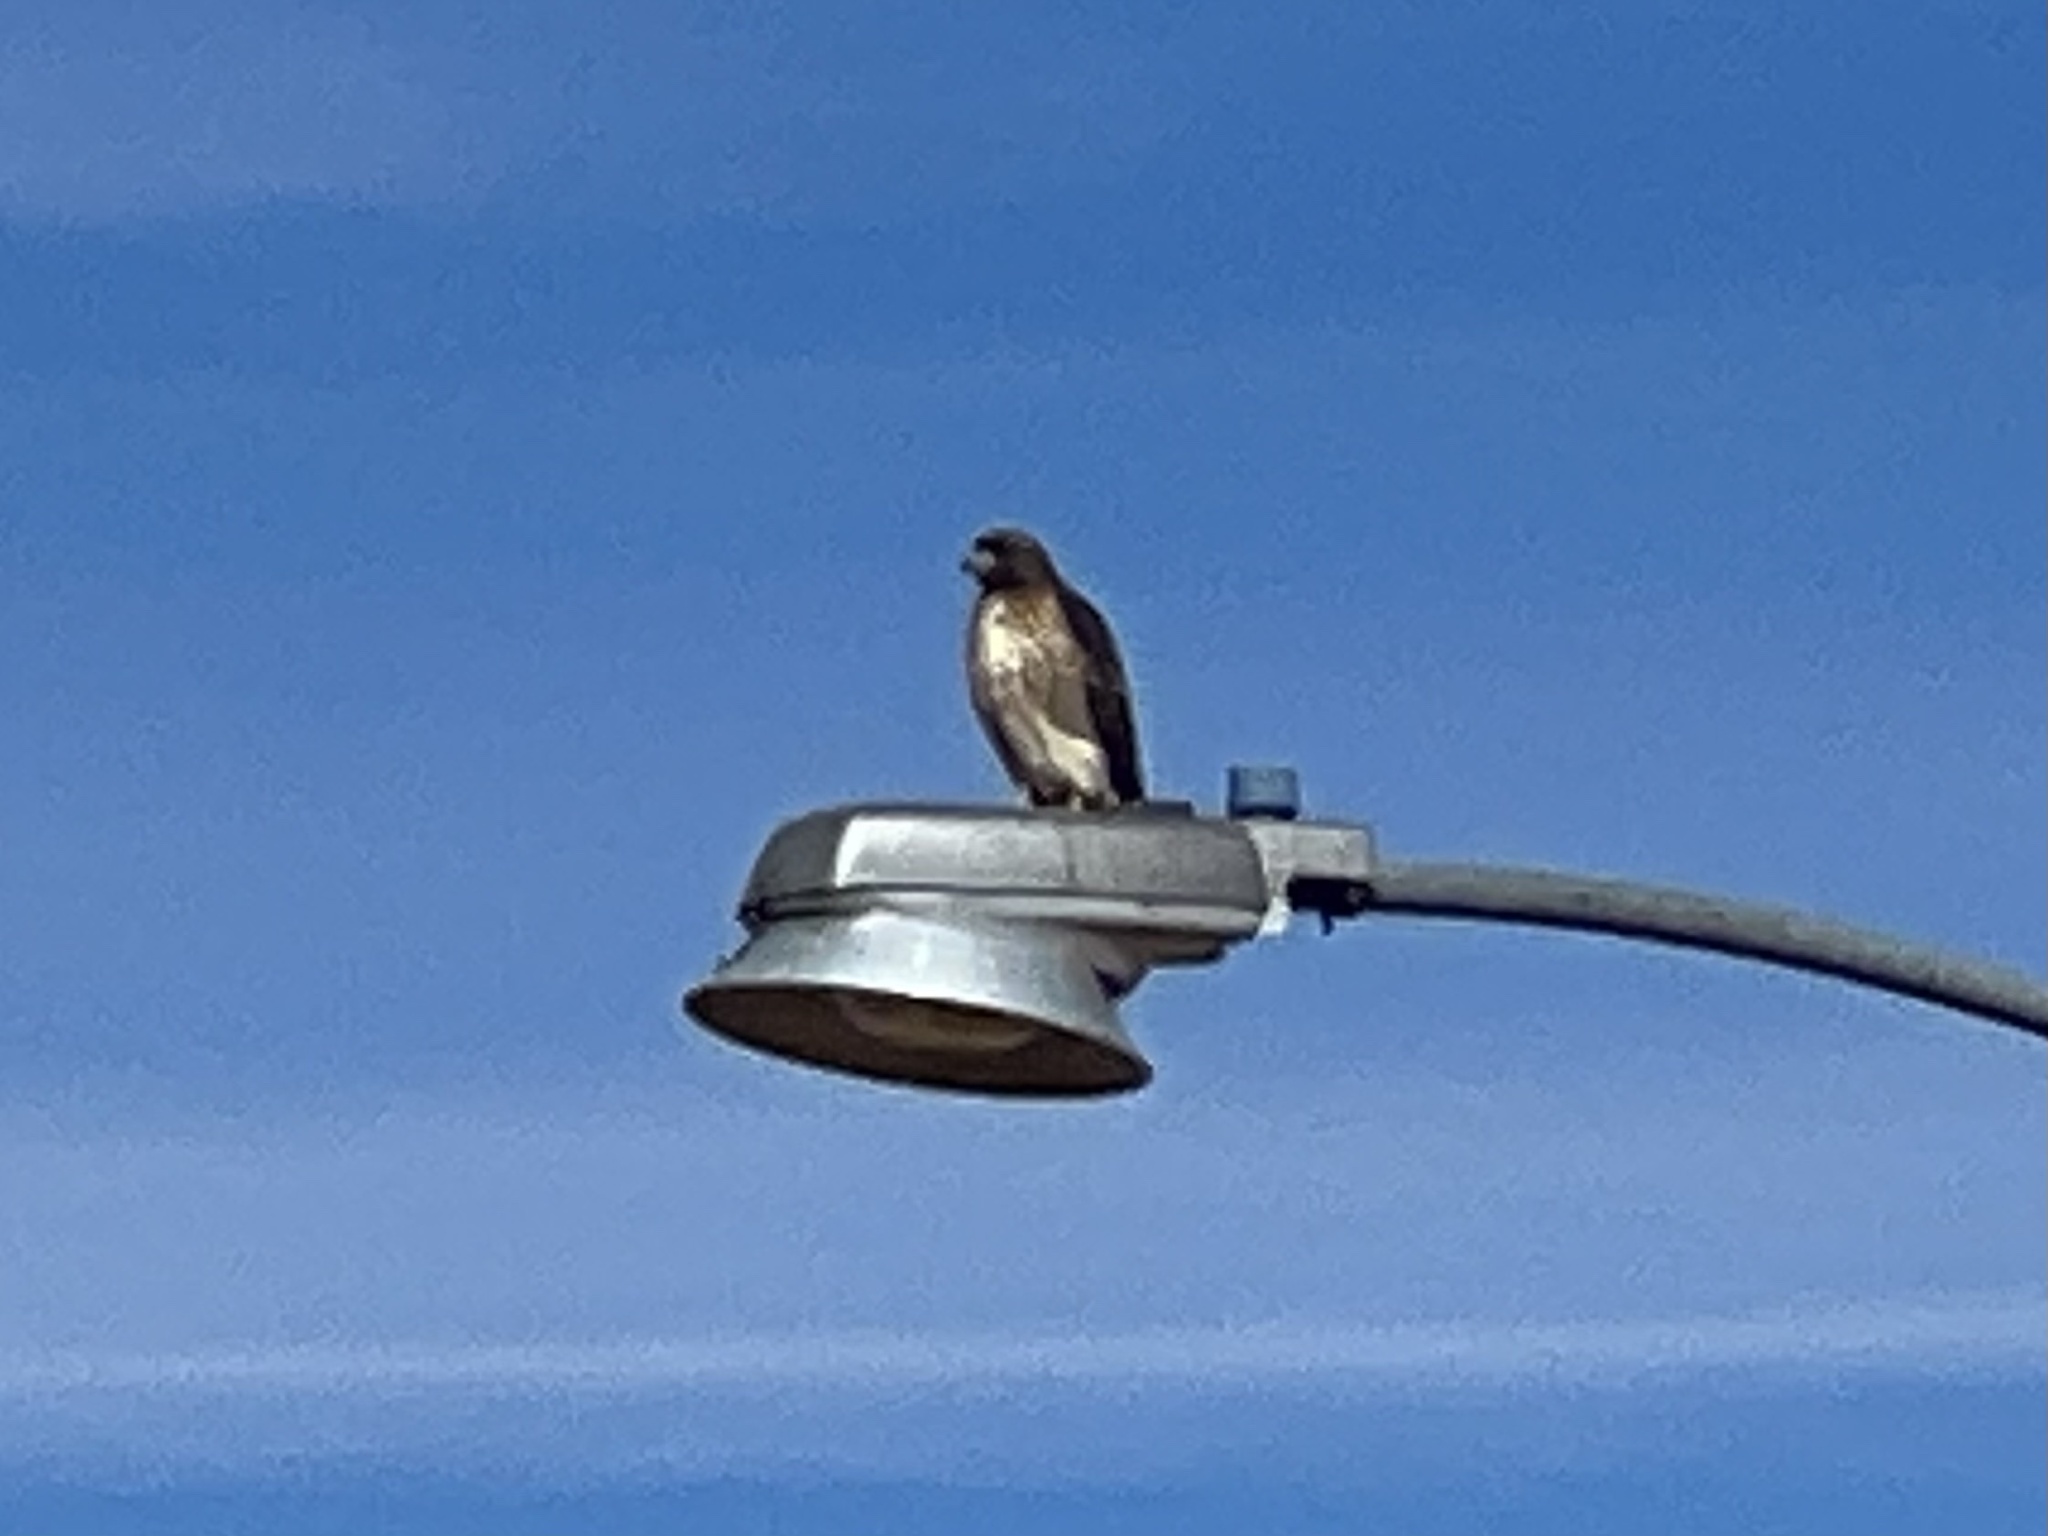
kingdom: Animalia
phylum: Chordata
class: Aves
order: Accipitriformes
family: Accipitridae
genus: Buteo
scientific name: Buteo jamaicensis
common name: Red-tailed hawk
